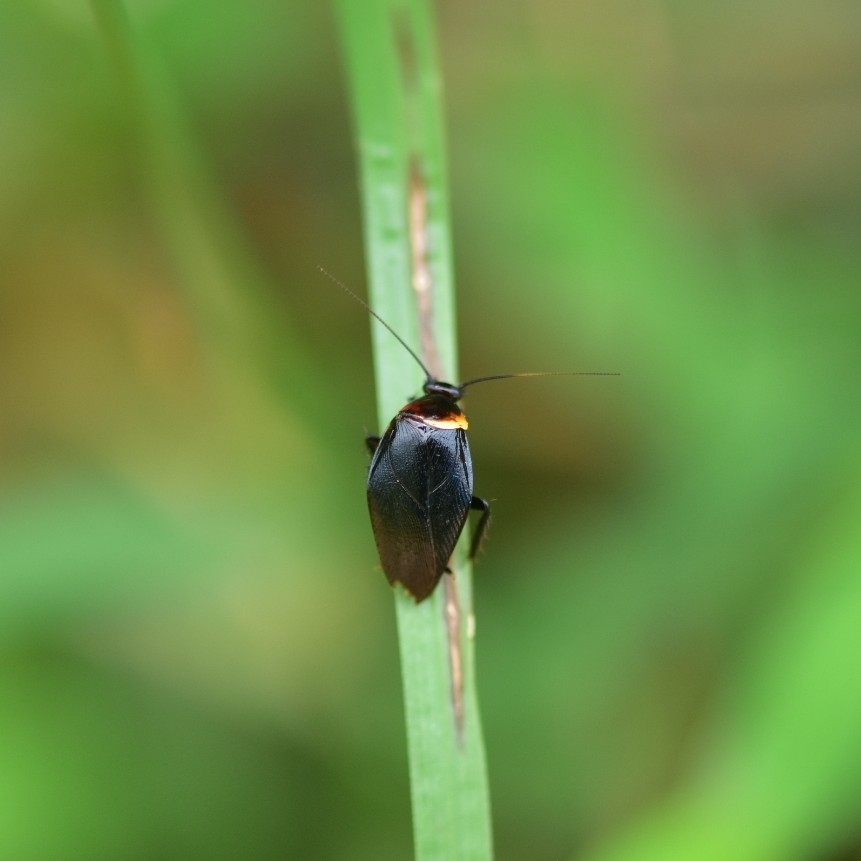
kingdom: Animalia
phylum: Arthropoda
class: Insecta
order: Blattodea
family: Ectobiidae
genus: Hemithyrsocera
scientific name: Hemithyrsocera palliata
